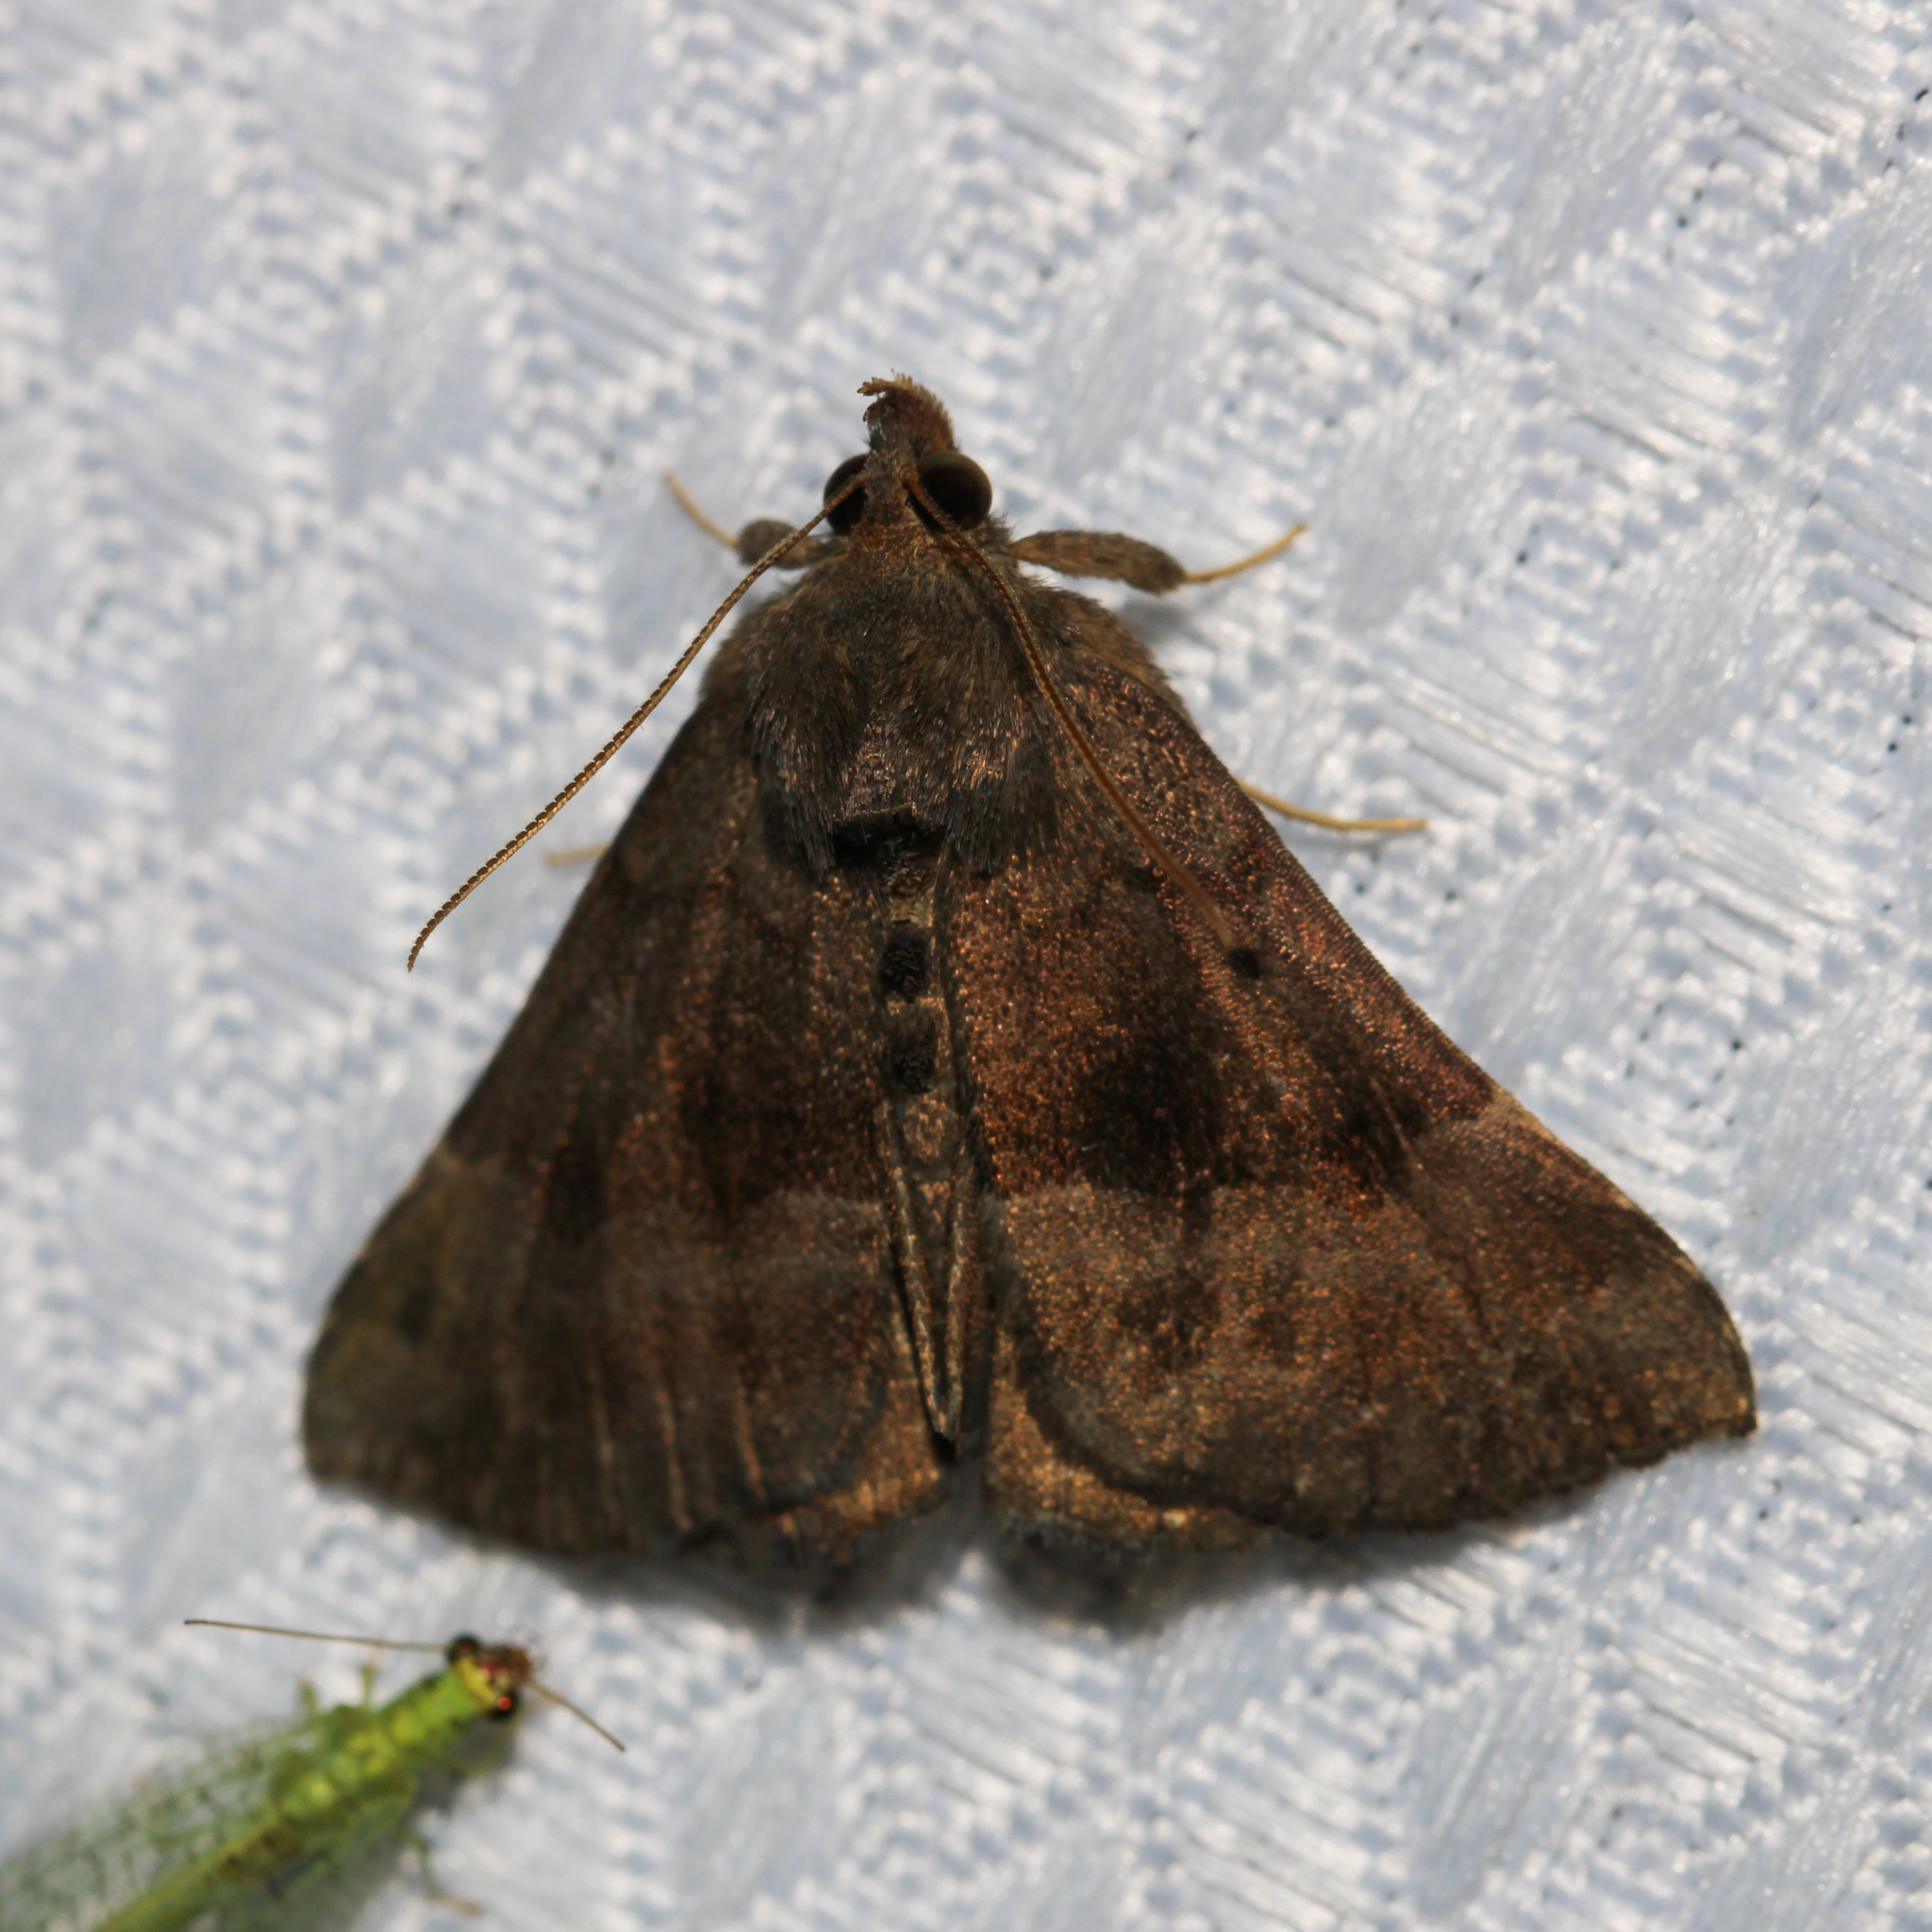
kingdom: Animalia
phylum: Arthropoda
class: Insecta
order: Lepidoptera
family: Erebidae
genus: Hypena
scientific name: Hypena madefactalis
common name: Gray-edged snout
